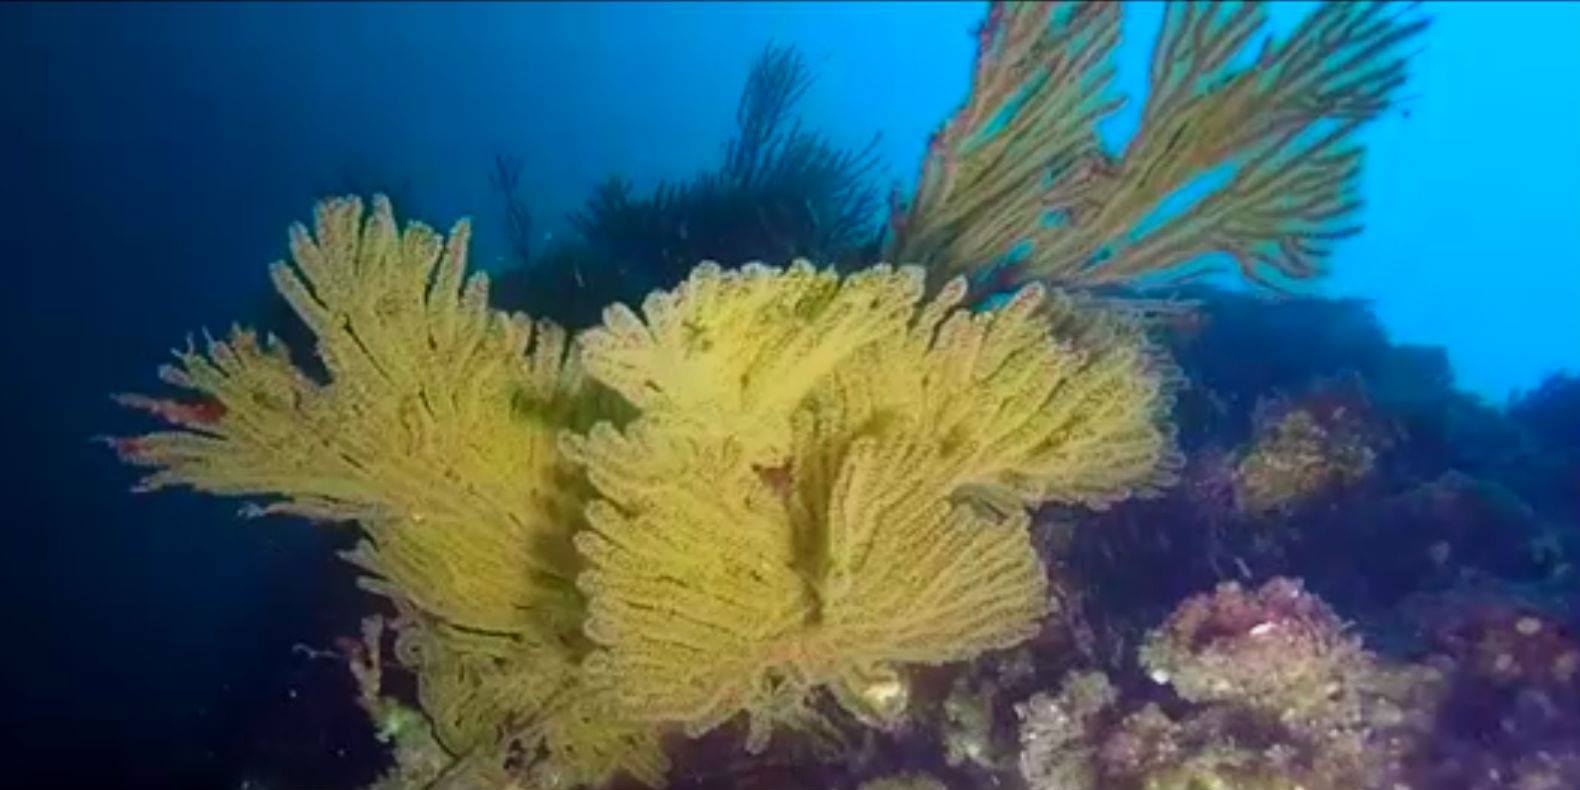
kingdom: Animalia
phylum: Cnidaria
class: Anthozoa
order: Malacalcyonacea
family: Plexauridae
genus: Muricea
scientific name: Muricea californica
